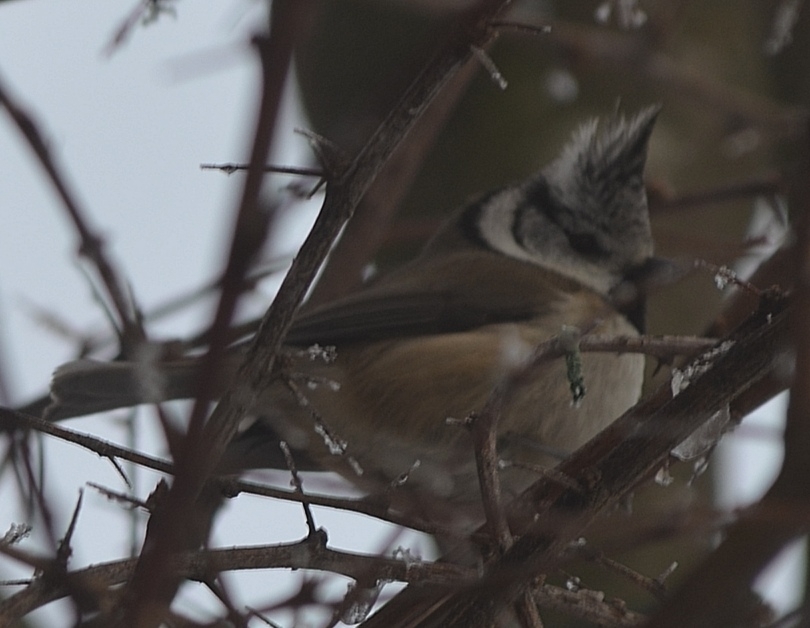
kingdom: Animalia
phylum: Chordata
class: Aves
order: Passeriformes
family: Paridae
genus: Lophophanes
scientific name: Lophophanes cristatus
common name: European crested tit
